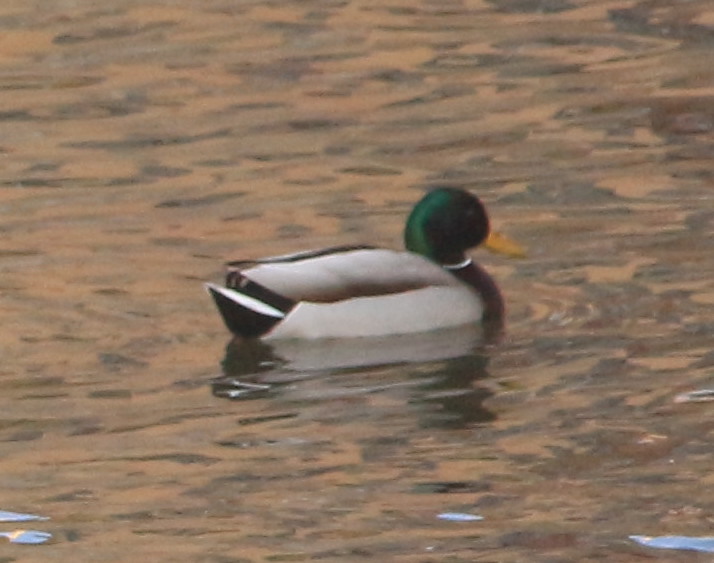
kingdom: Animalia
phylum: Chordata
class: Aves
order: Anseriformes
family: Anatidae
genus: Anas
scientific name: Anas platyrhynchos
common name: Mallard
